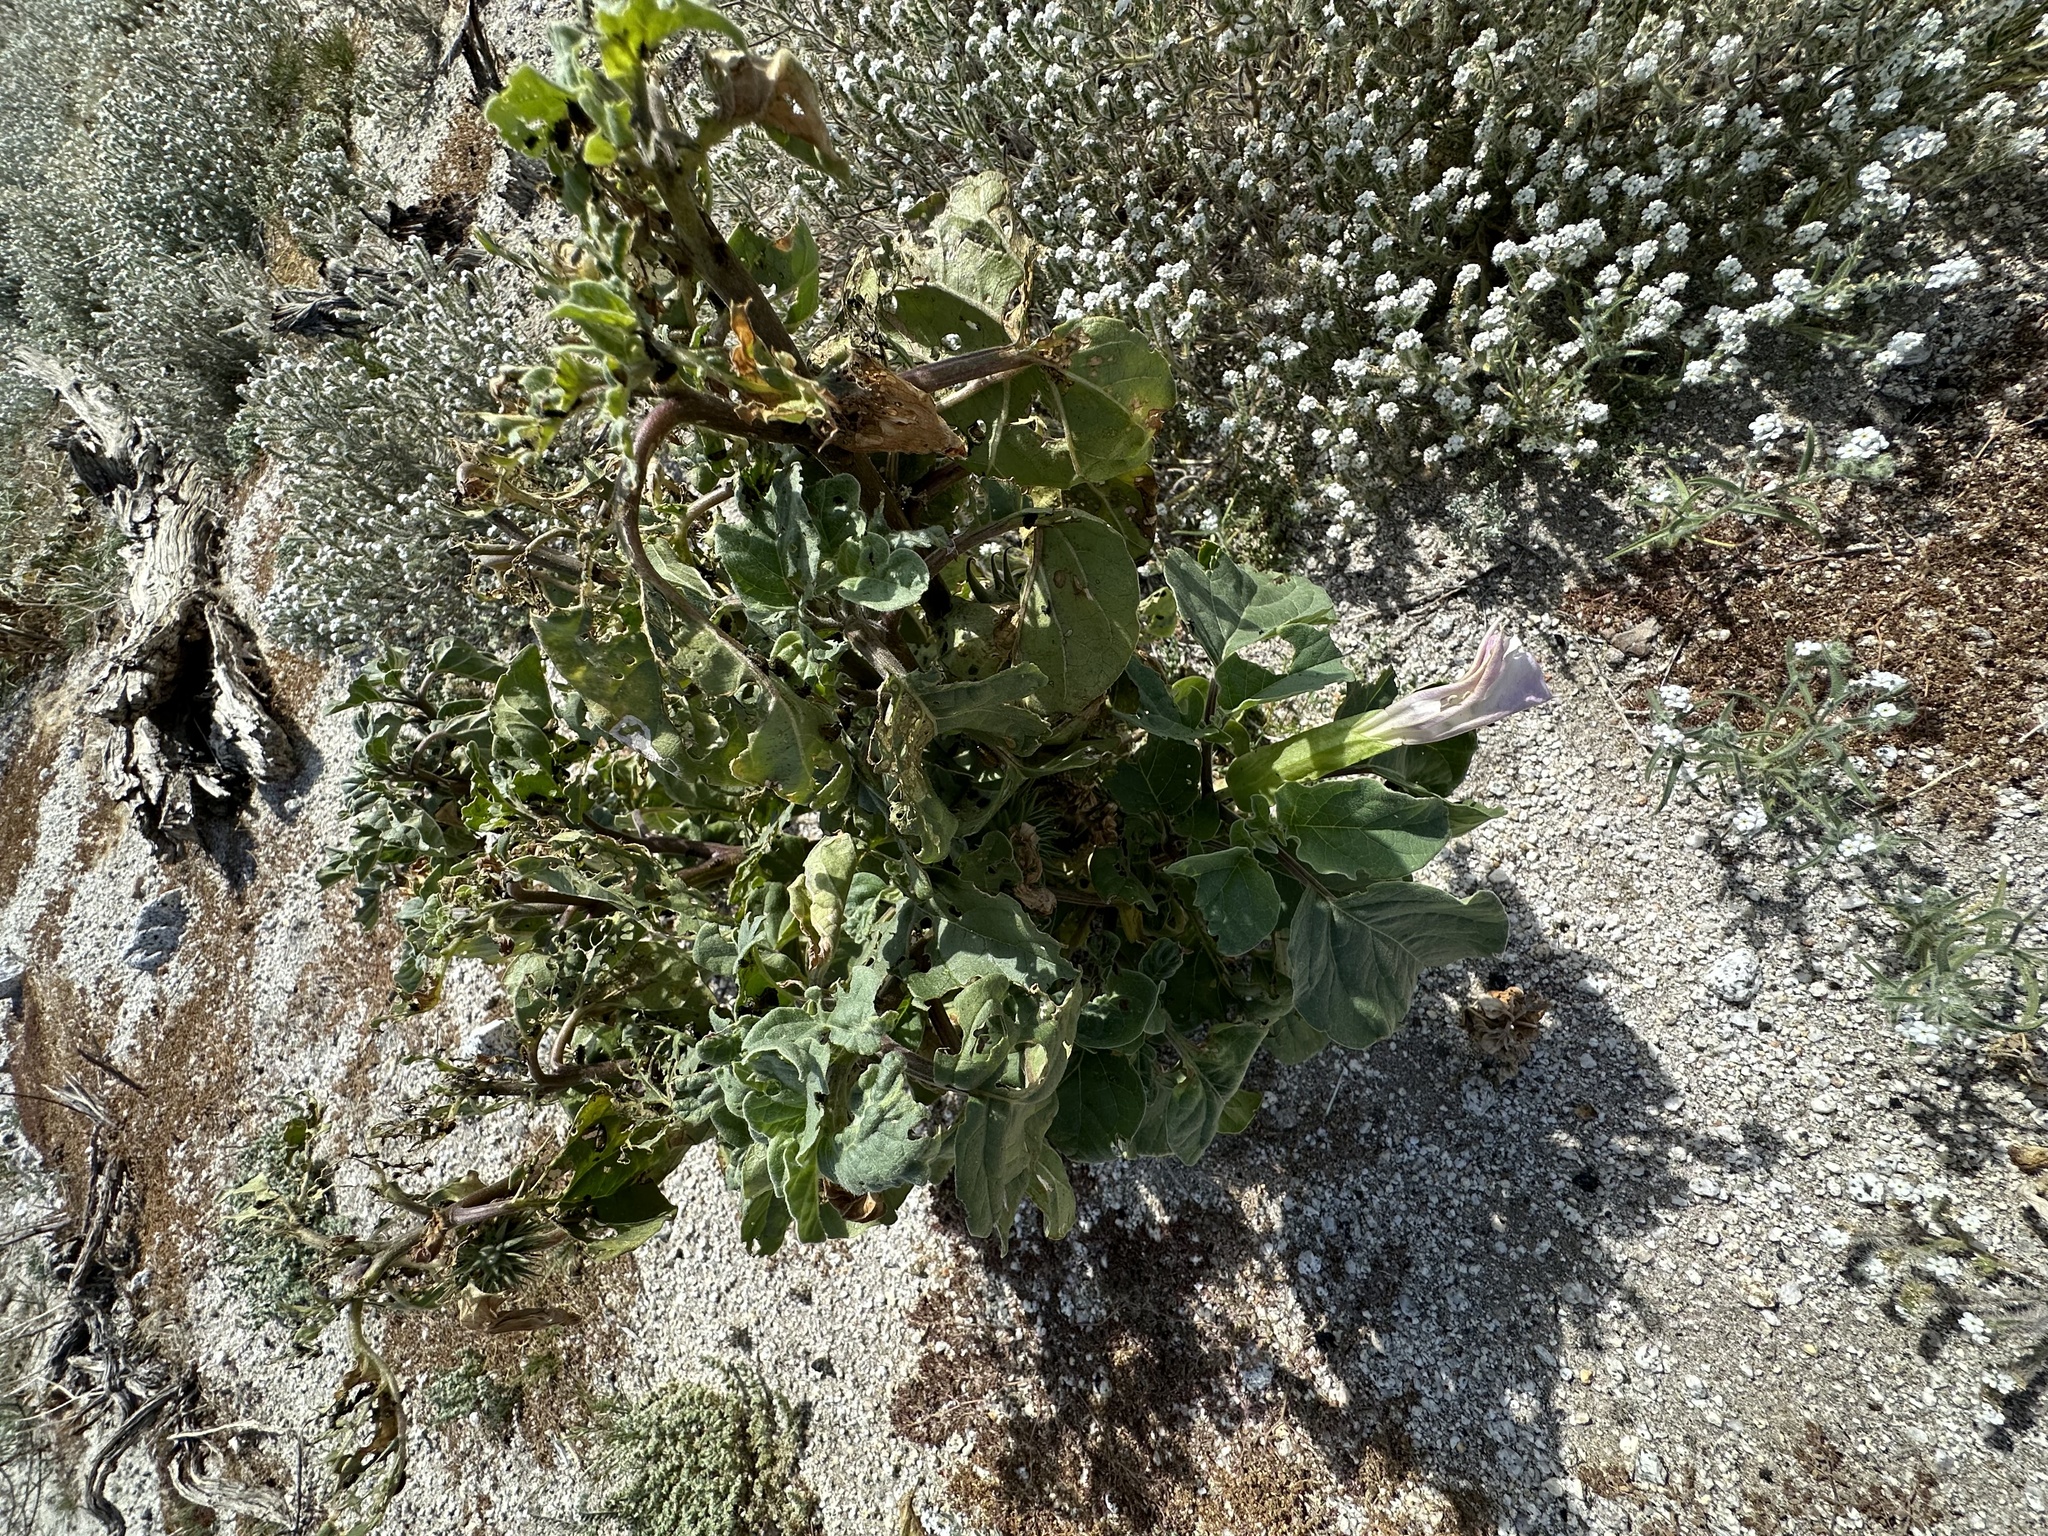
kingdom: Plantae
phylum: Tracheophyta
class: Magnoliopsida
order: Solanales
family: Solanaceae
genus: Datura
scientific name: Datura discolor
